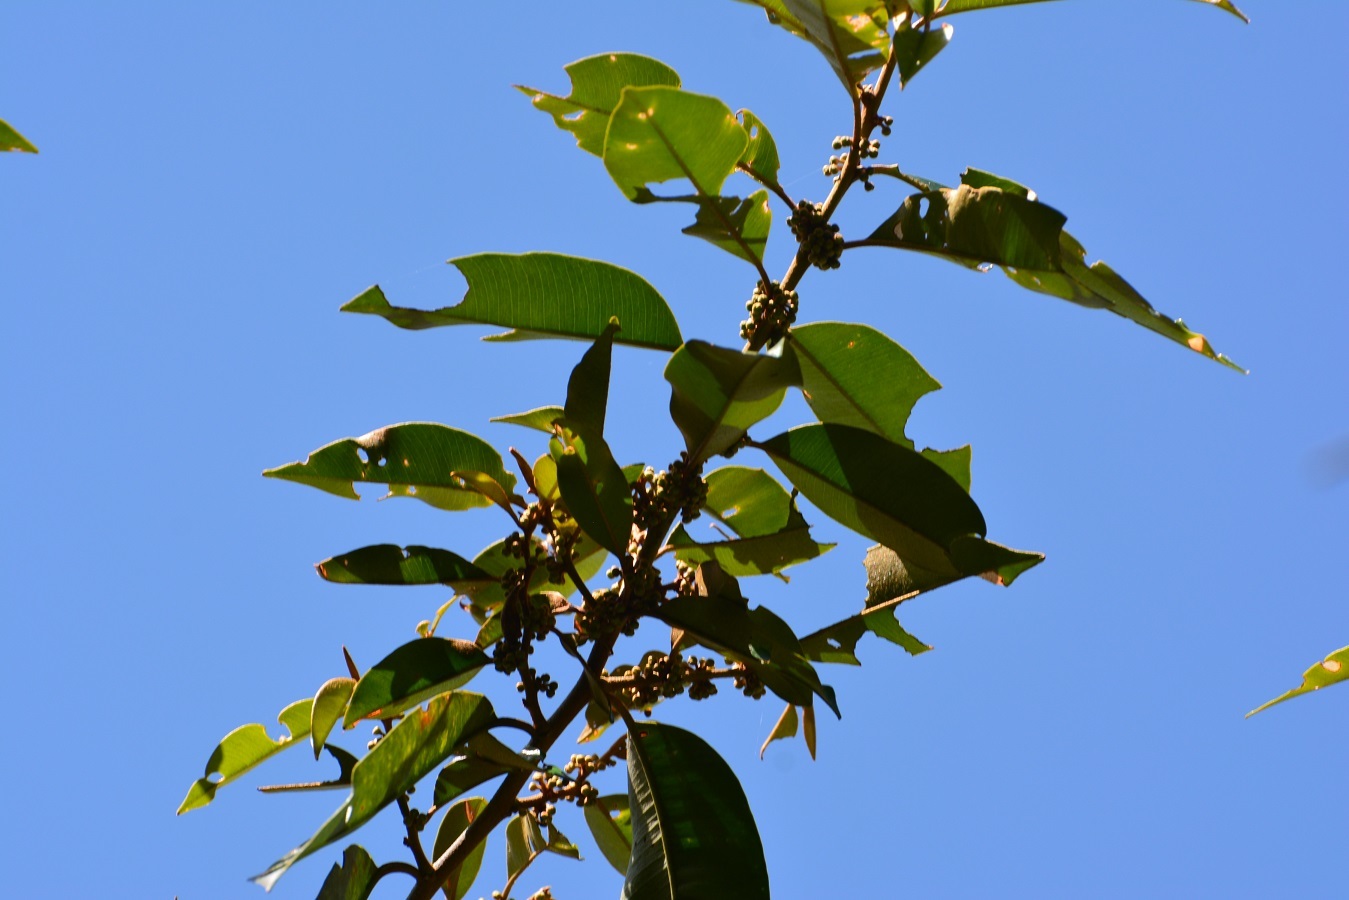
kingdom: Plantae
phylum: Tracheophyta
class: Magnoliopsida
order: Ericales
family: Sapotaceae
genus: Chrysophyllum
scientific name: Chrysophyllum mexicanum
